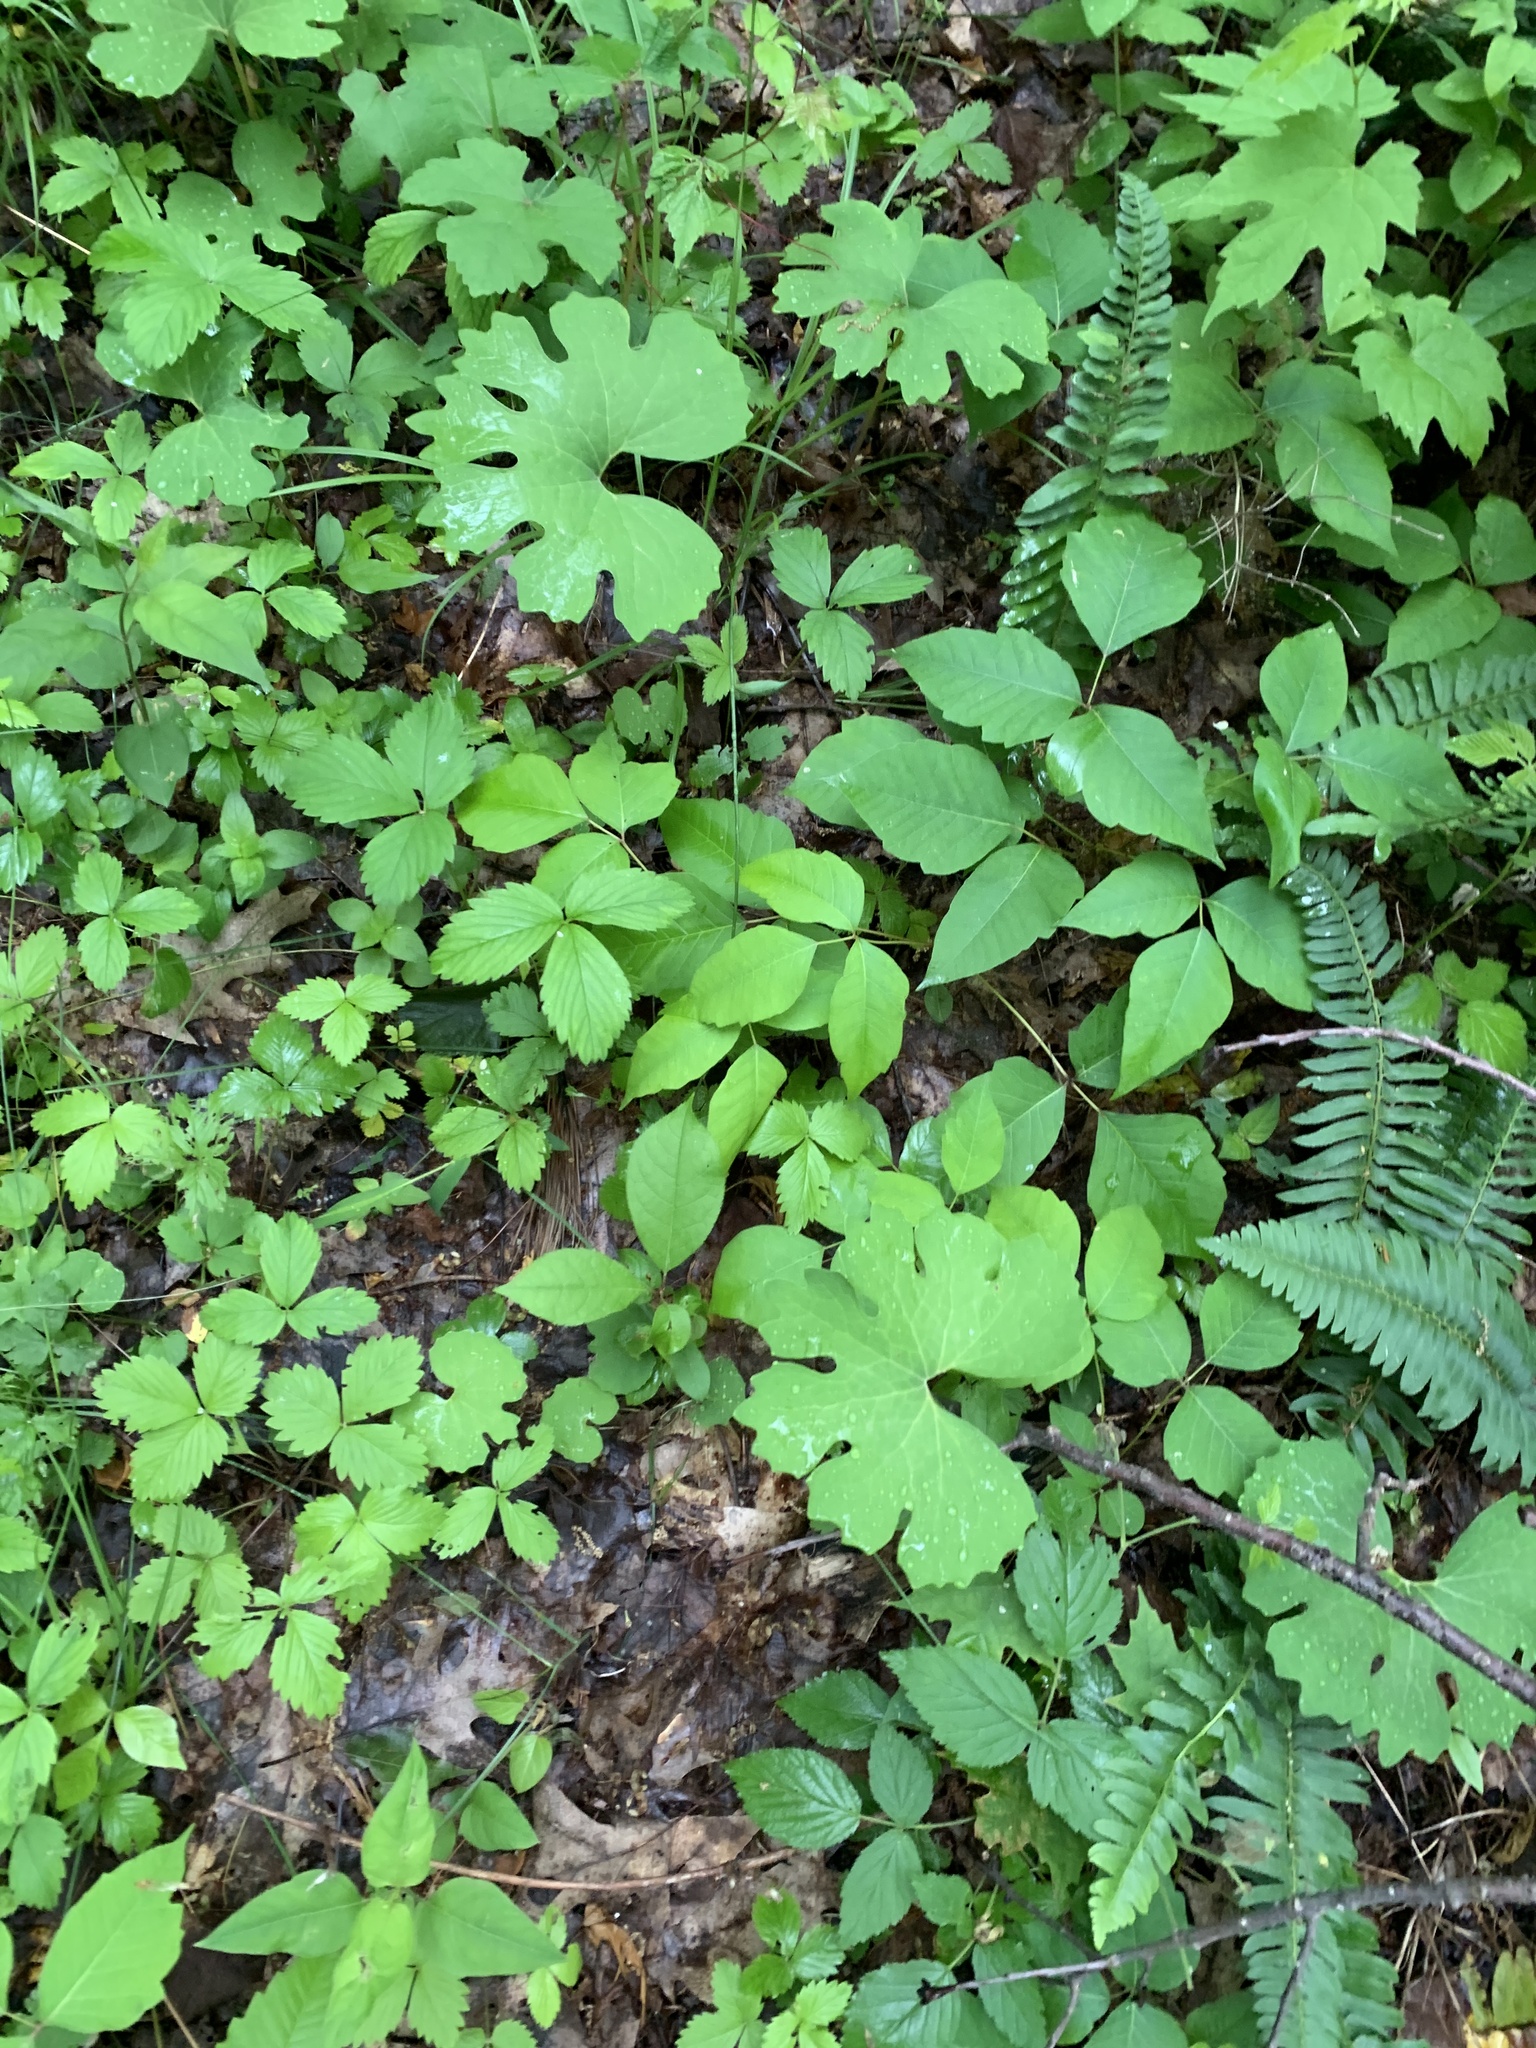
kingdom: Plantae
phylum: Tracheophyta
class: Magnoliopsida
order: Ranunculales
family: Papaveraceae
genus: Sanguinaria
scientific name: Sanguinaria canadensis
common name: Bloodroot
